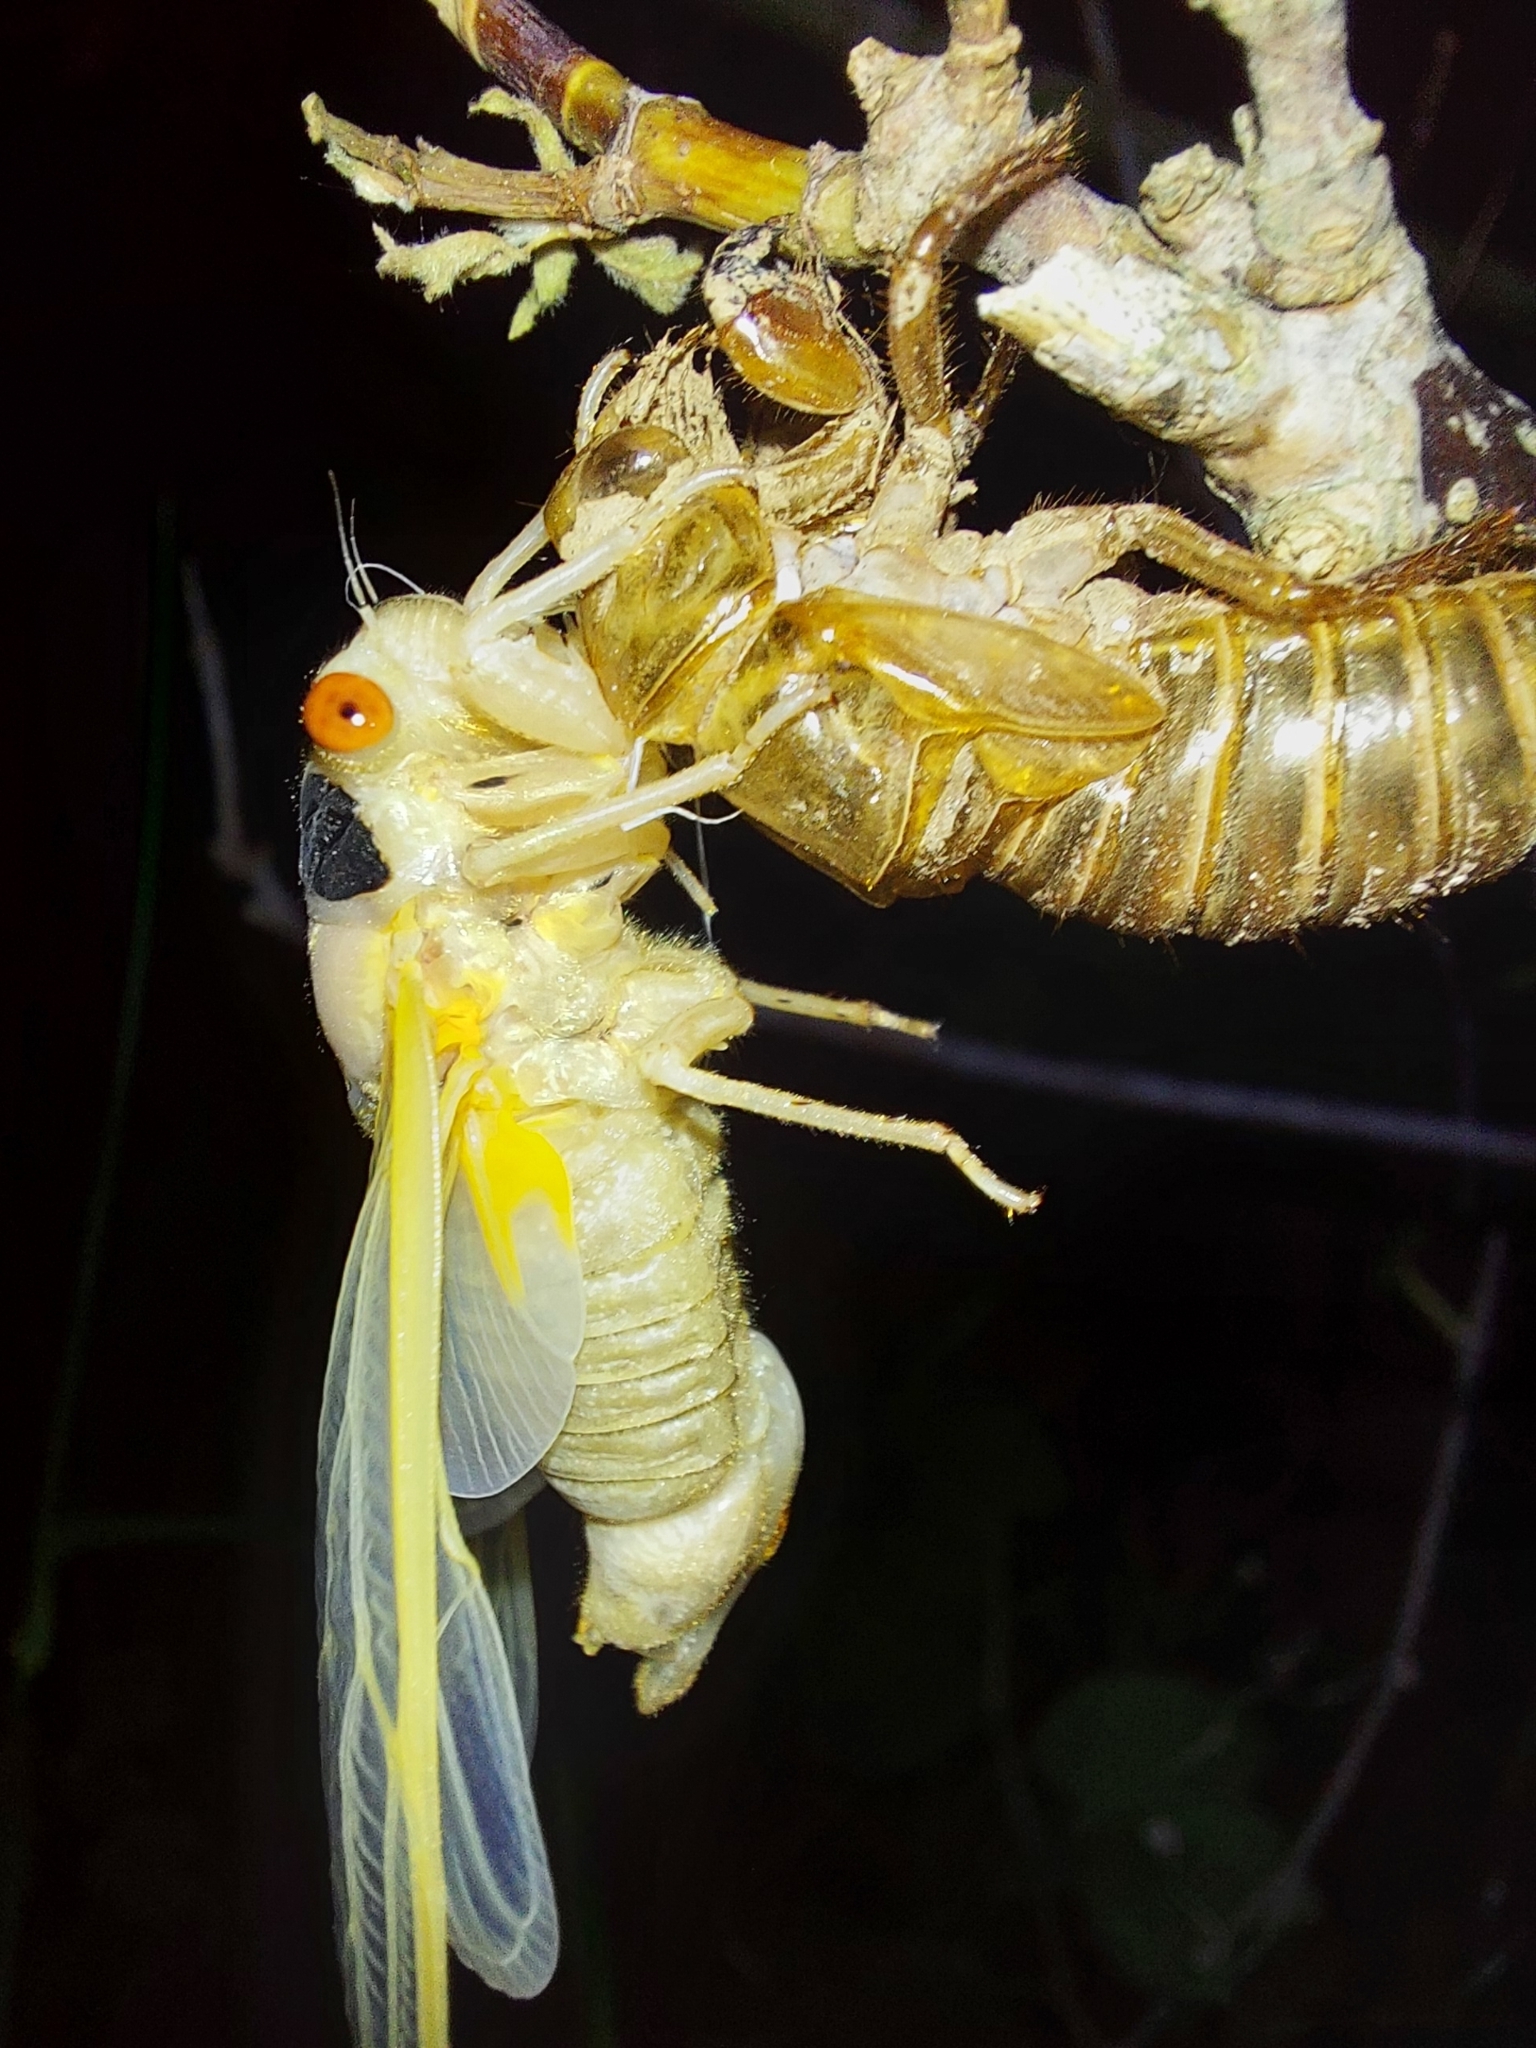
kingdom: Animalia
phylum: Arthropoda
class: Insecta
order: Hemiptera
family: Cicadidae
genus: Magicicada
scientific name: Magicicada
